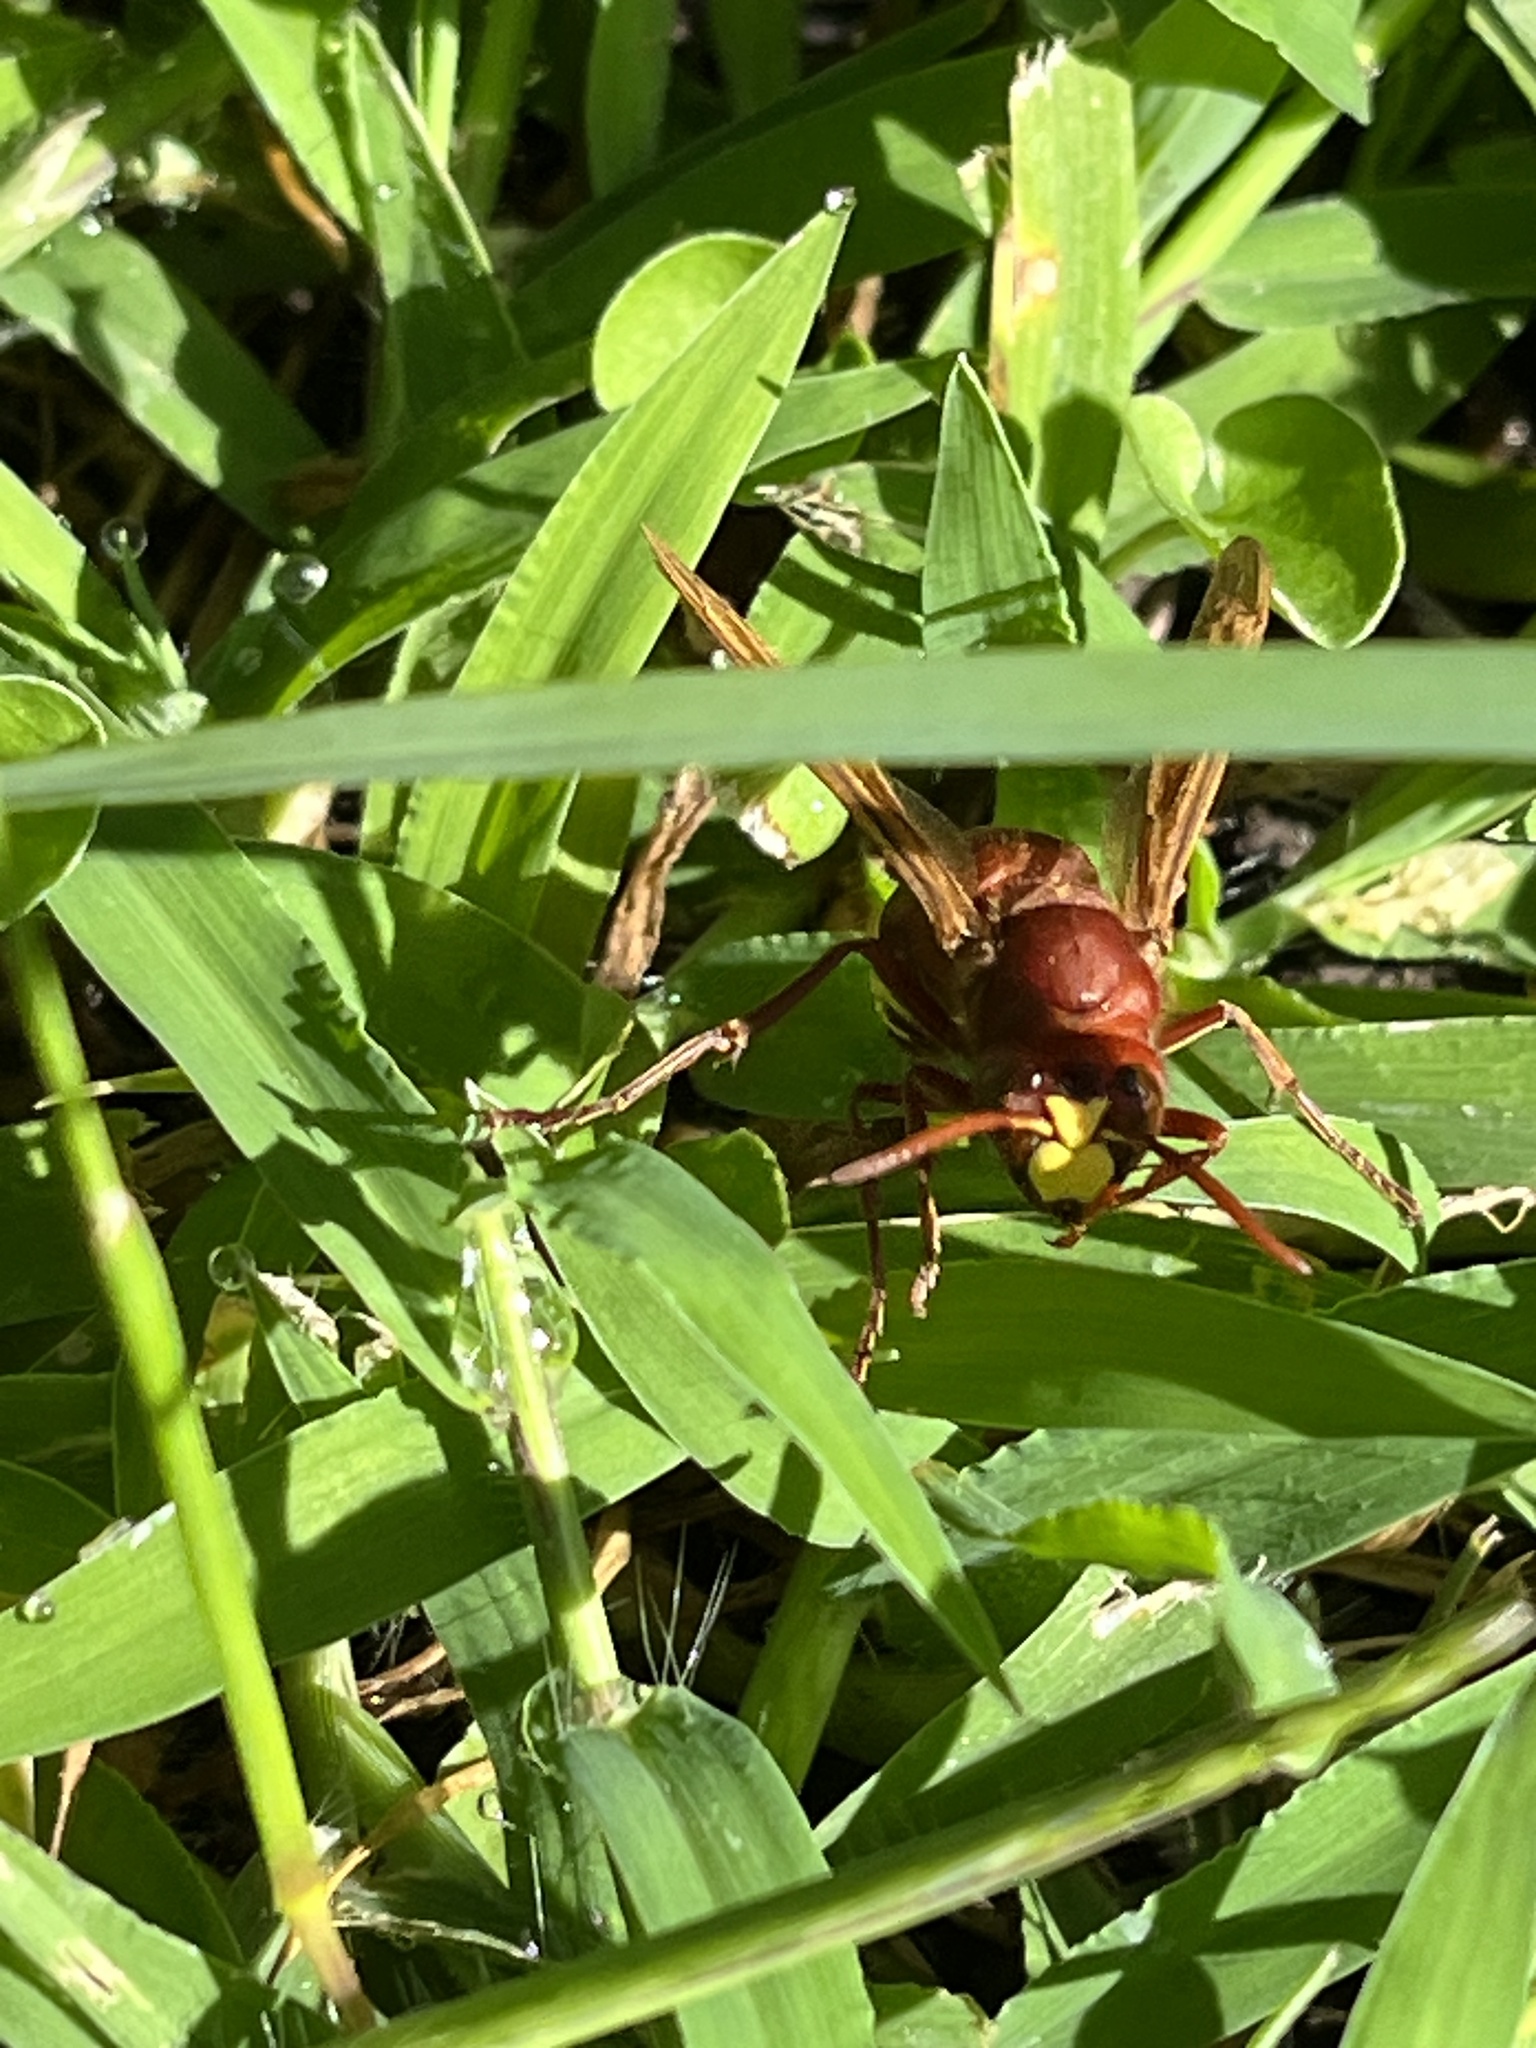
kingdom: Animalia
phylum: Arthropoda
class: Insecta
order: Hymenoptera
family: Vespidae
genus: Vespa
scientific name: Vespa orientalis
